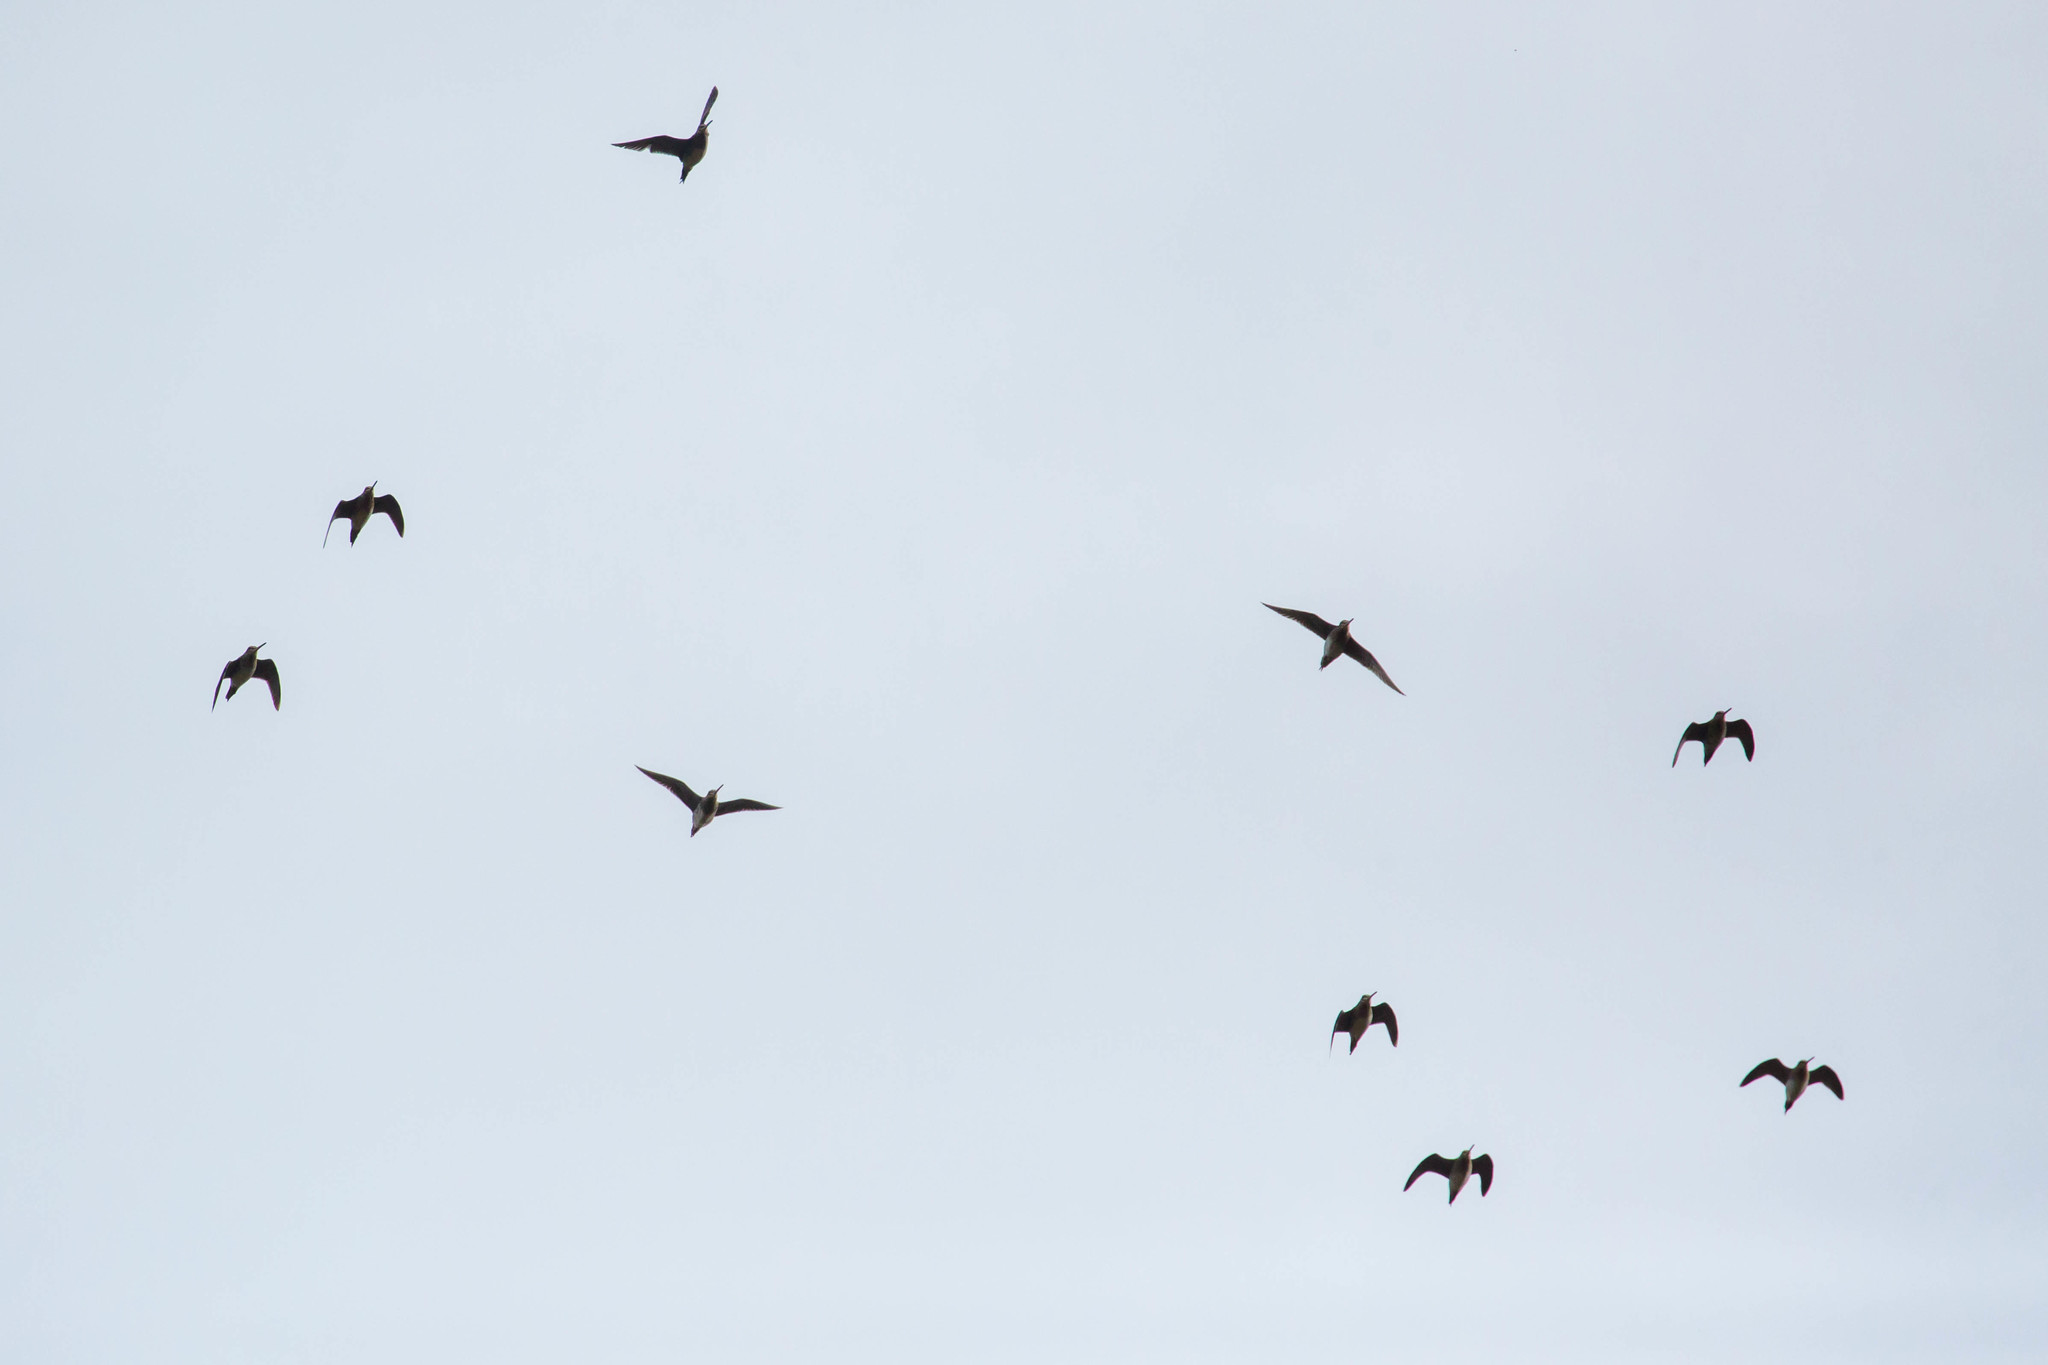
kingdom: Animalia
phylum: Chordata
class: Aves
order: Charadriiformes
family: Scolopacidae
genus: Gallinago
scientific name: Gallinago delicata
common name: Wilson's snipe
